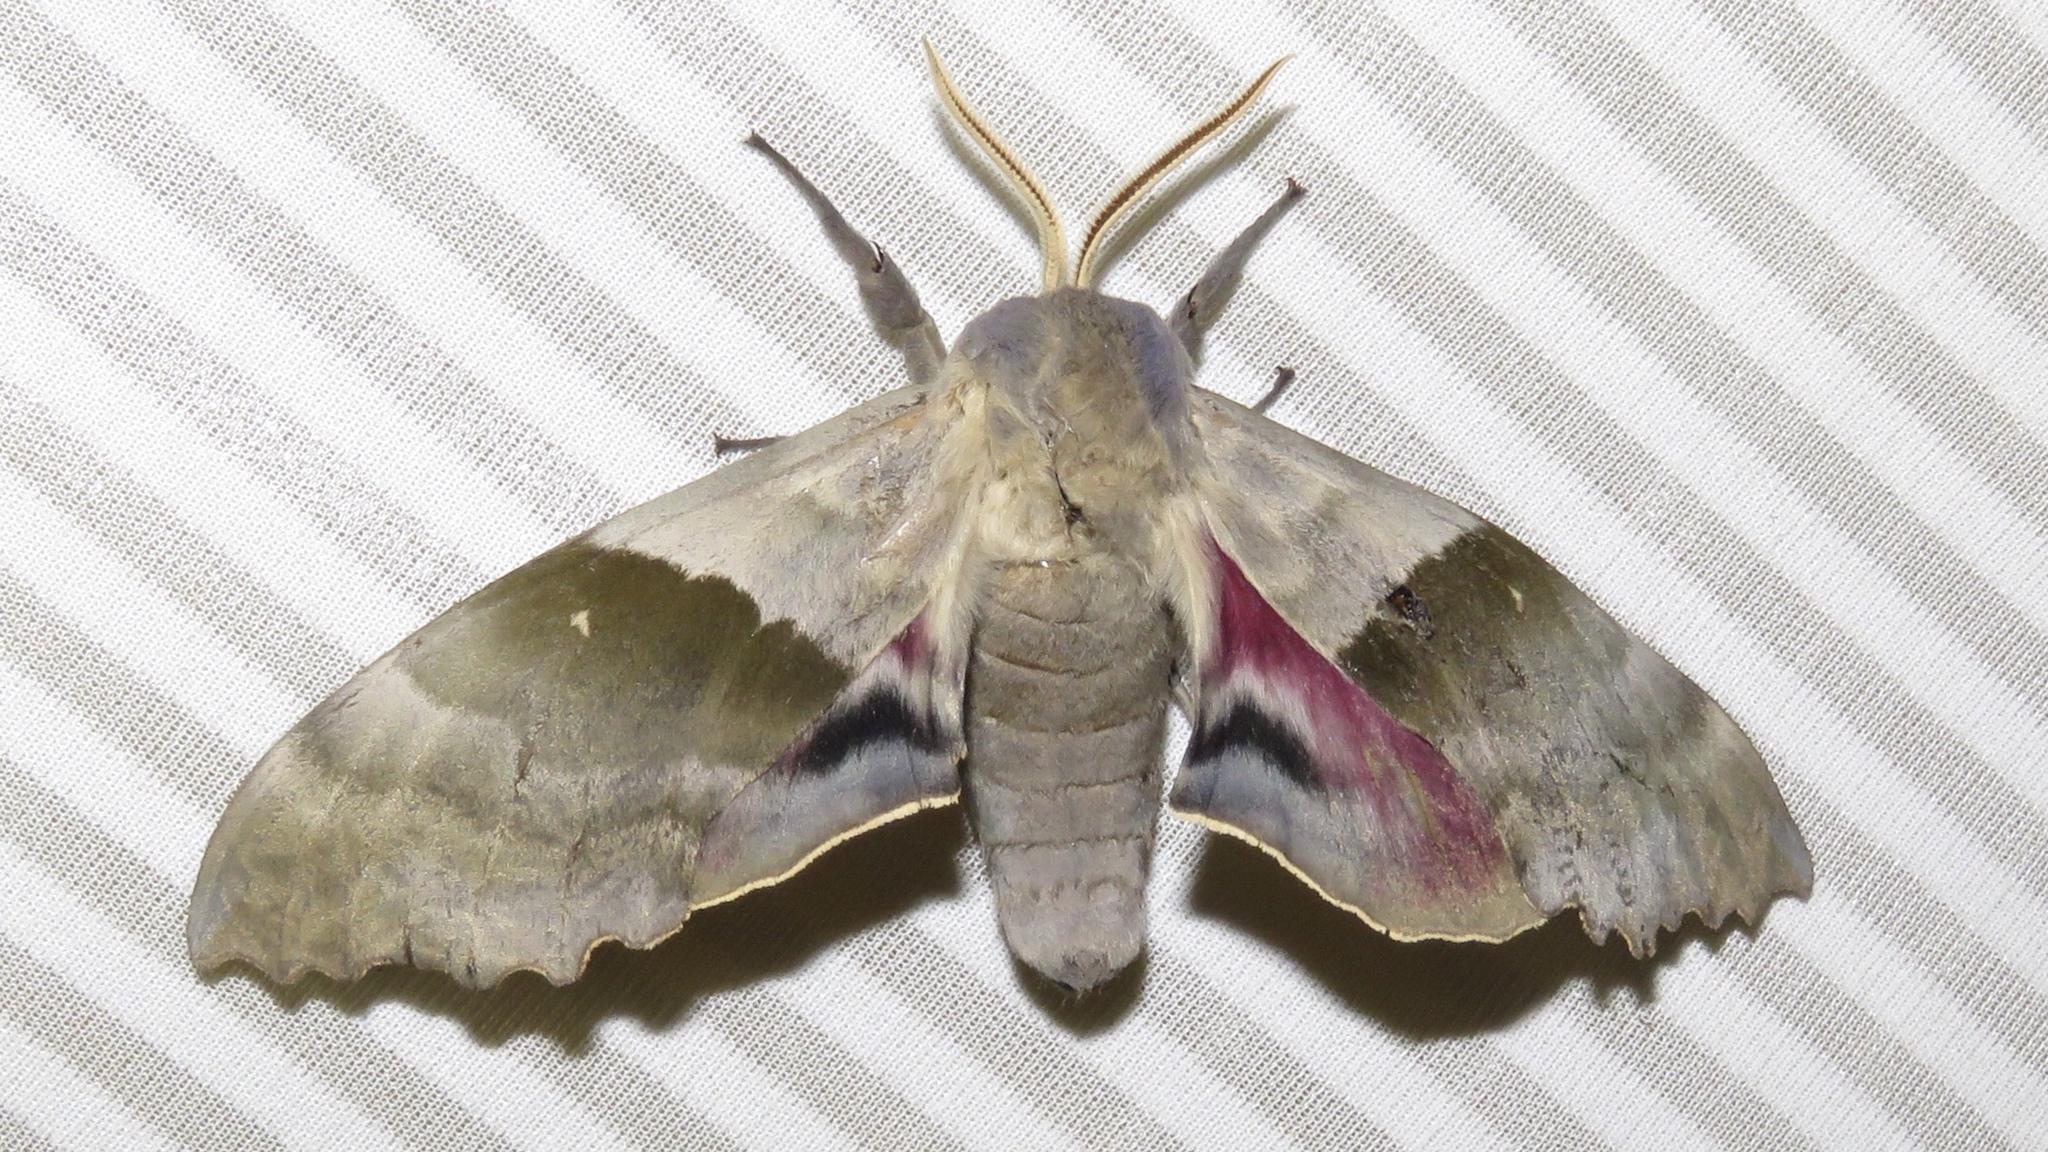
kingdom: Animalia
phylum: Arthropoda
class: Insecta
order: Lepidoptera
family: Sphingidae
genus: Pachysphinx
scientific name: Pachysphinx modesta
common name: Big poplar sphinx
